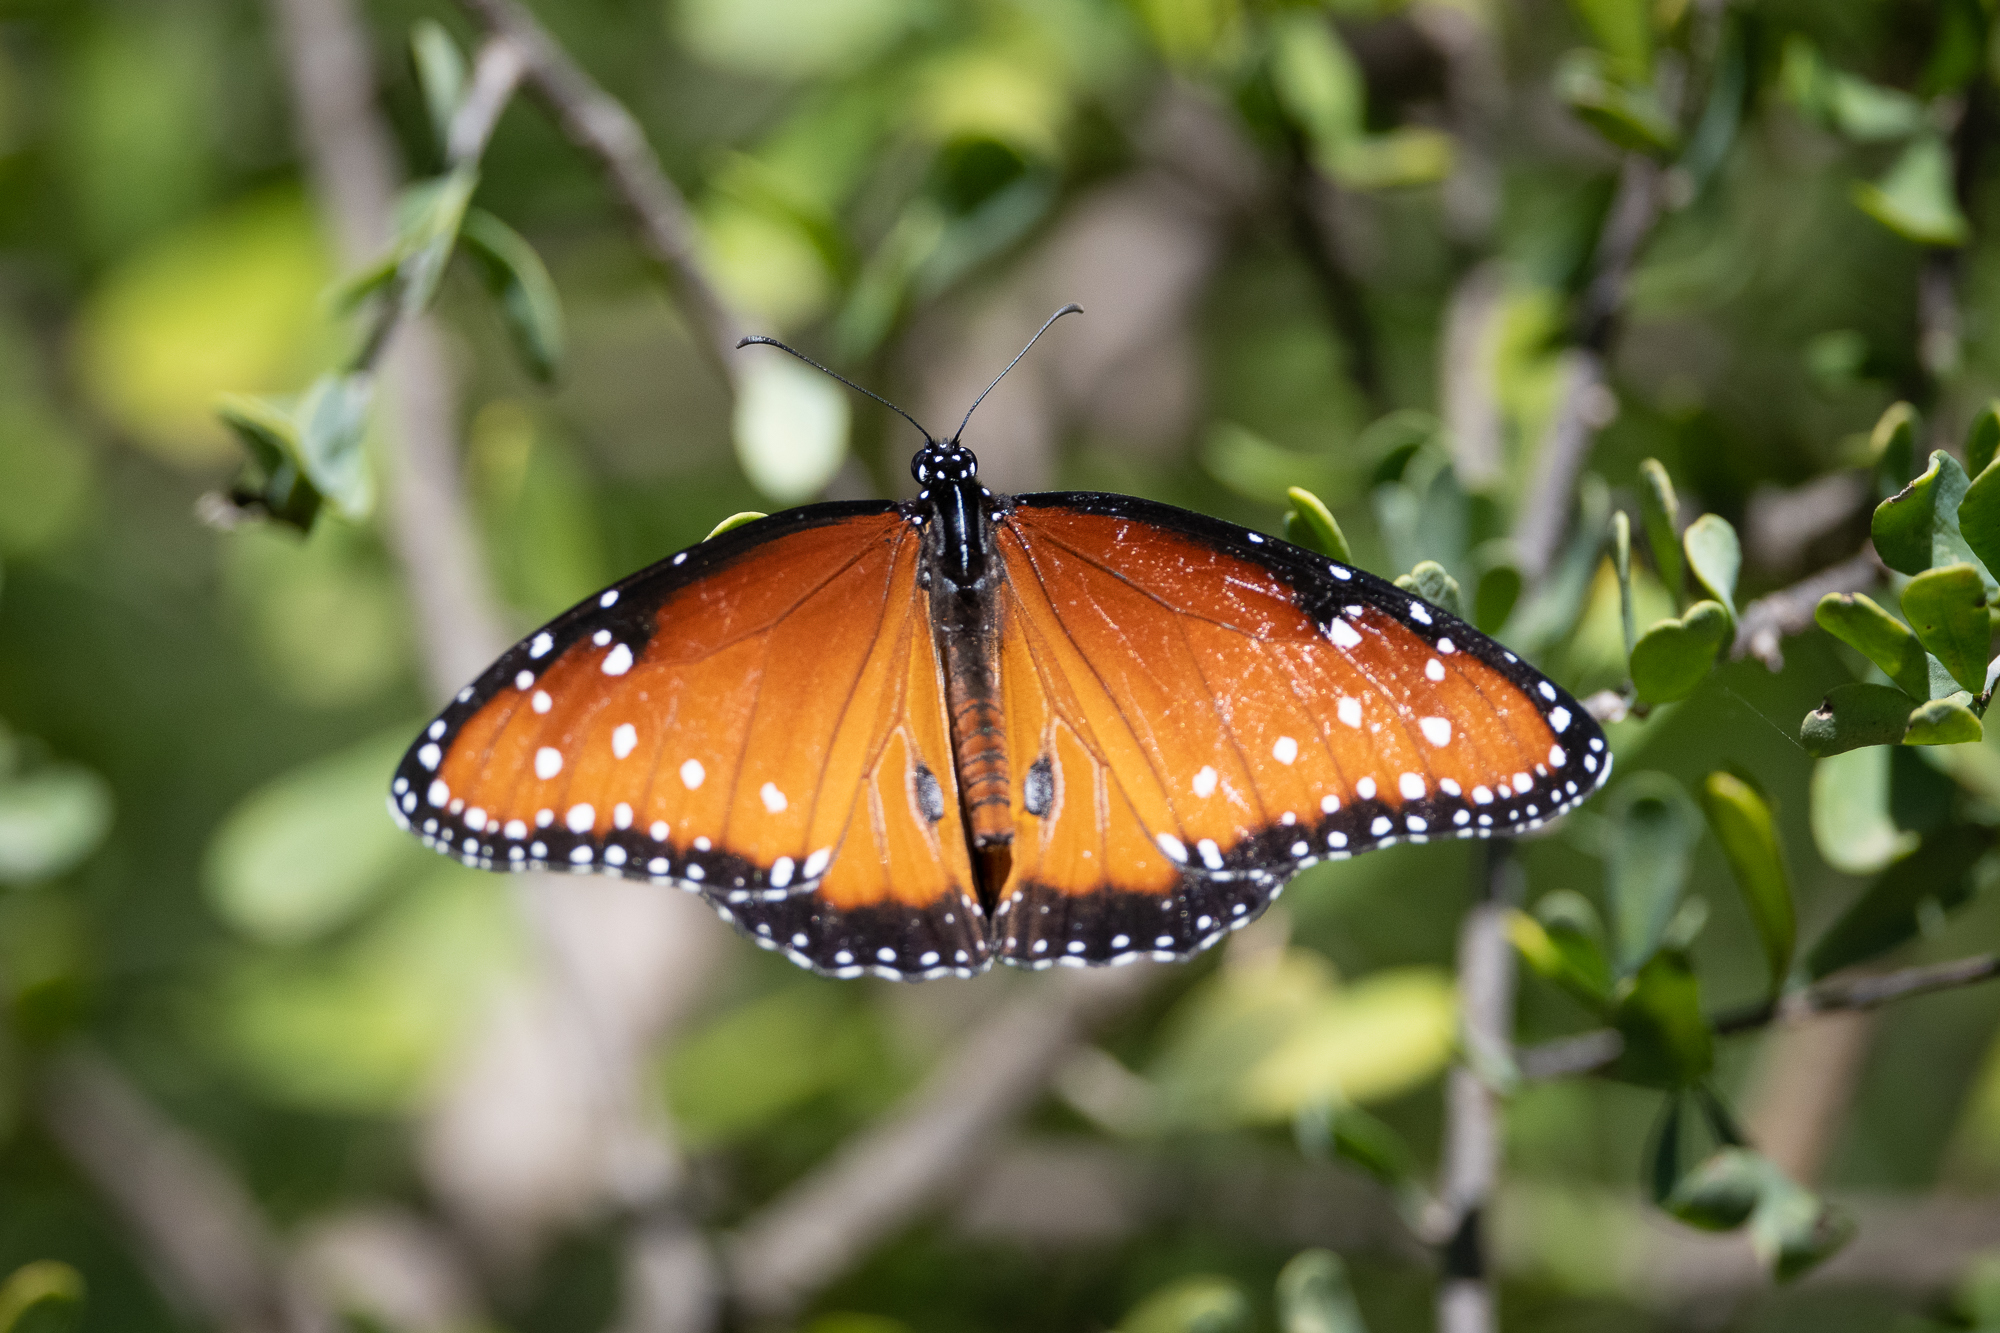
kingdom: Animalia
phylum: Arthropoda
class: Insecta
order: Lepidoptera
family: Nymphalidae
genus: Danaus
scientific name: Danaus gilippus
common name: Queen
